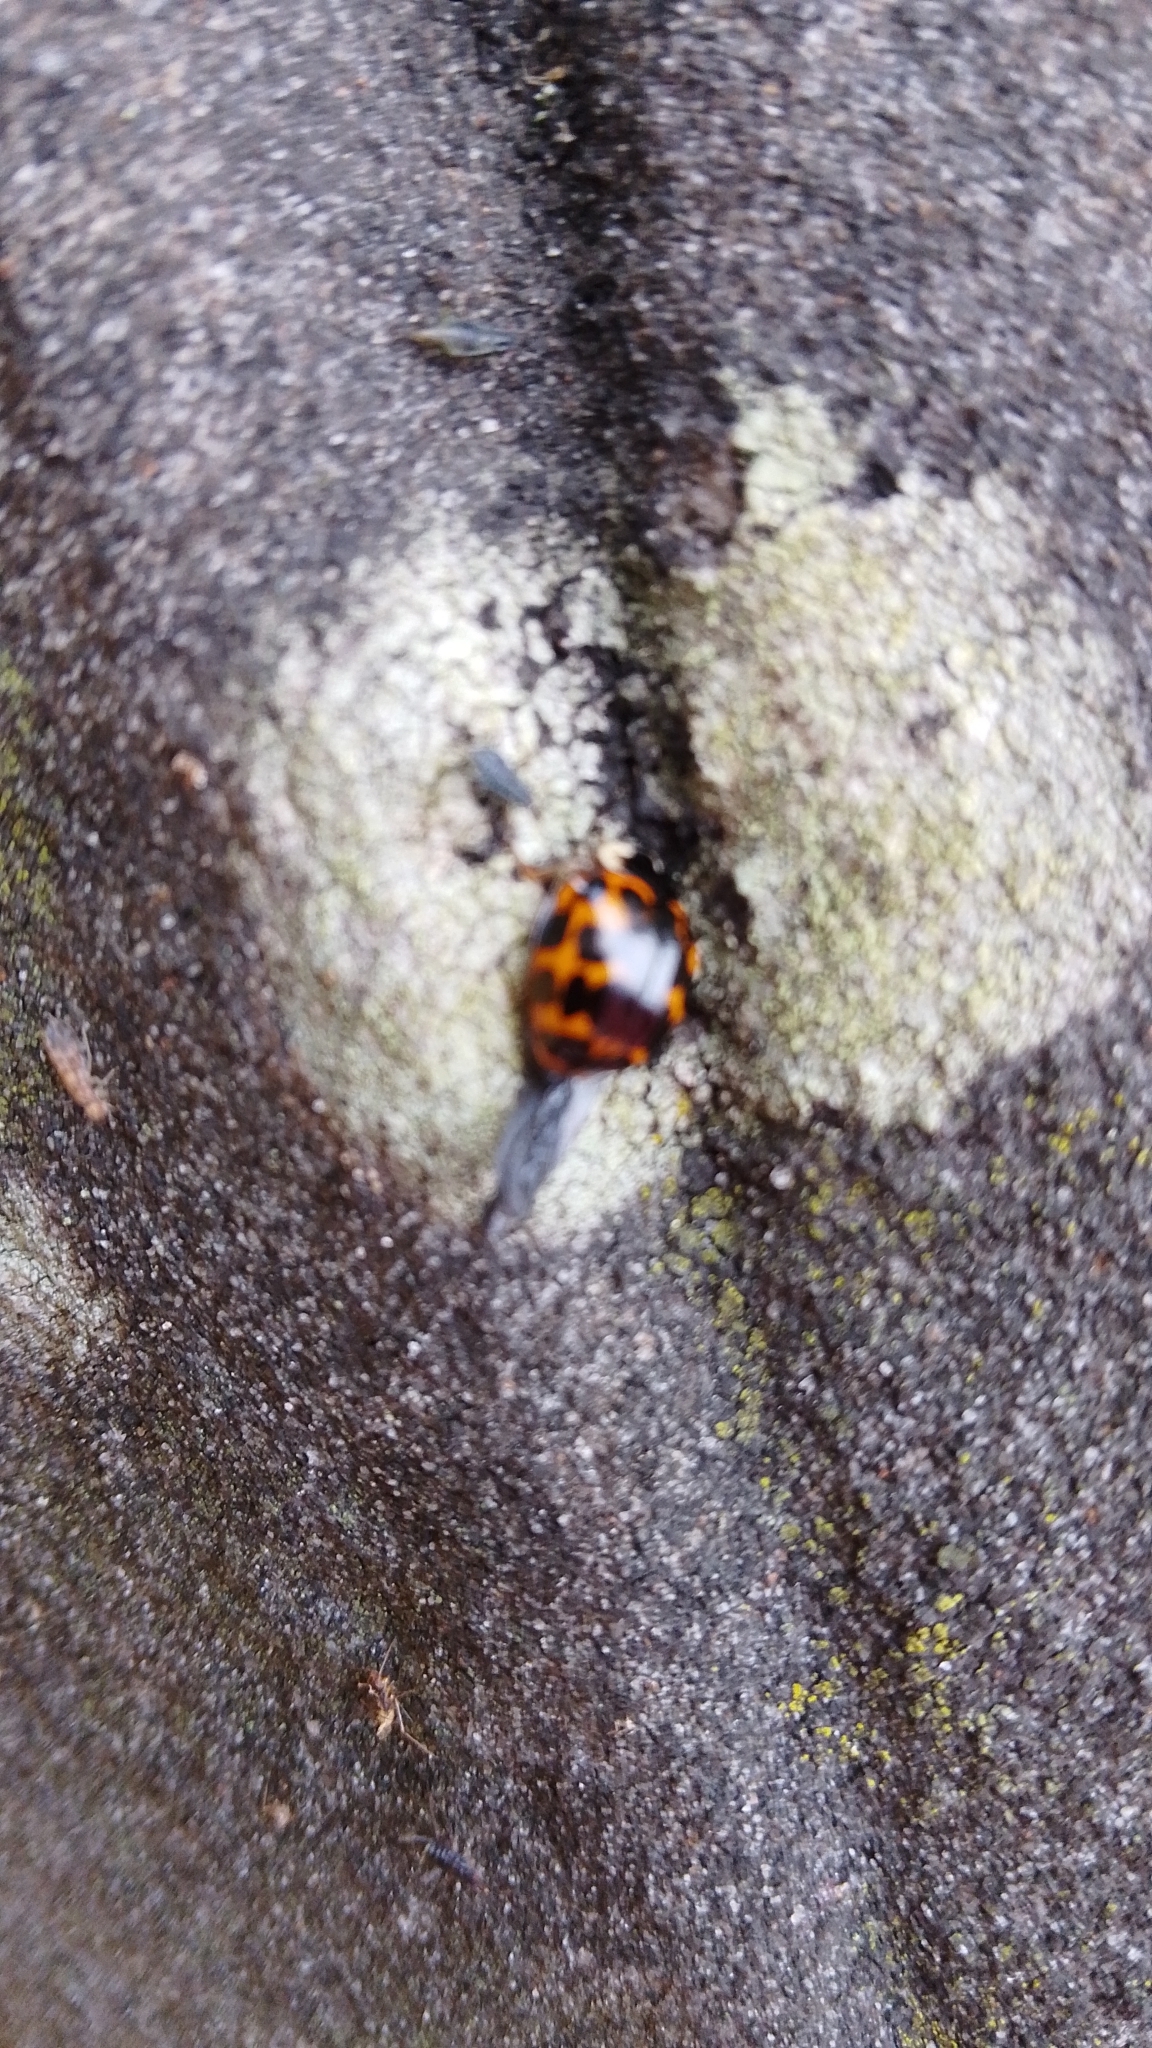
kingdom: Animalia
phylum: Arthropoda
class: Insecta
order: Coleoptera
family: Coccinellidae
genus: Harmonia
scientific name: Harmonia axyridis
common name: Harlequin ladybird
